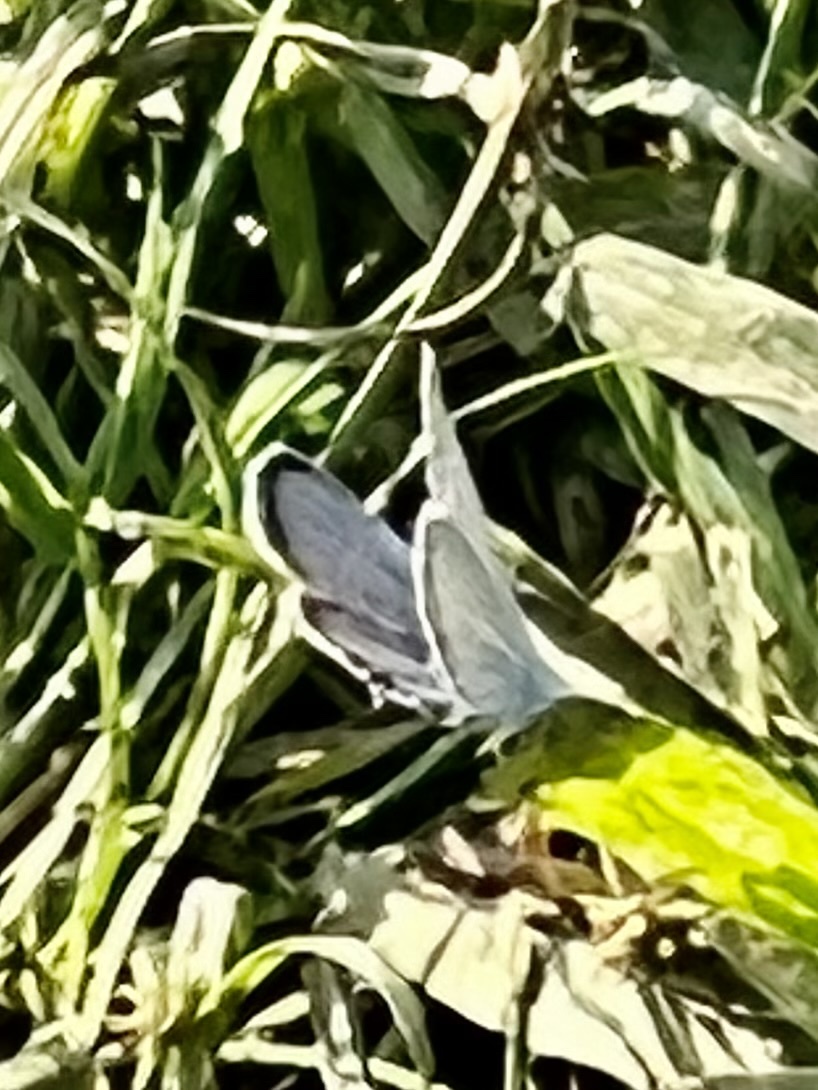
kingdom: Animalia
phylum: Arthropoda
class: Insecta
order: Lepidoptera
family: Lycaenidae
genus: Elkalyce
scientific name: Elkalyce comyntas
